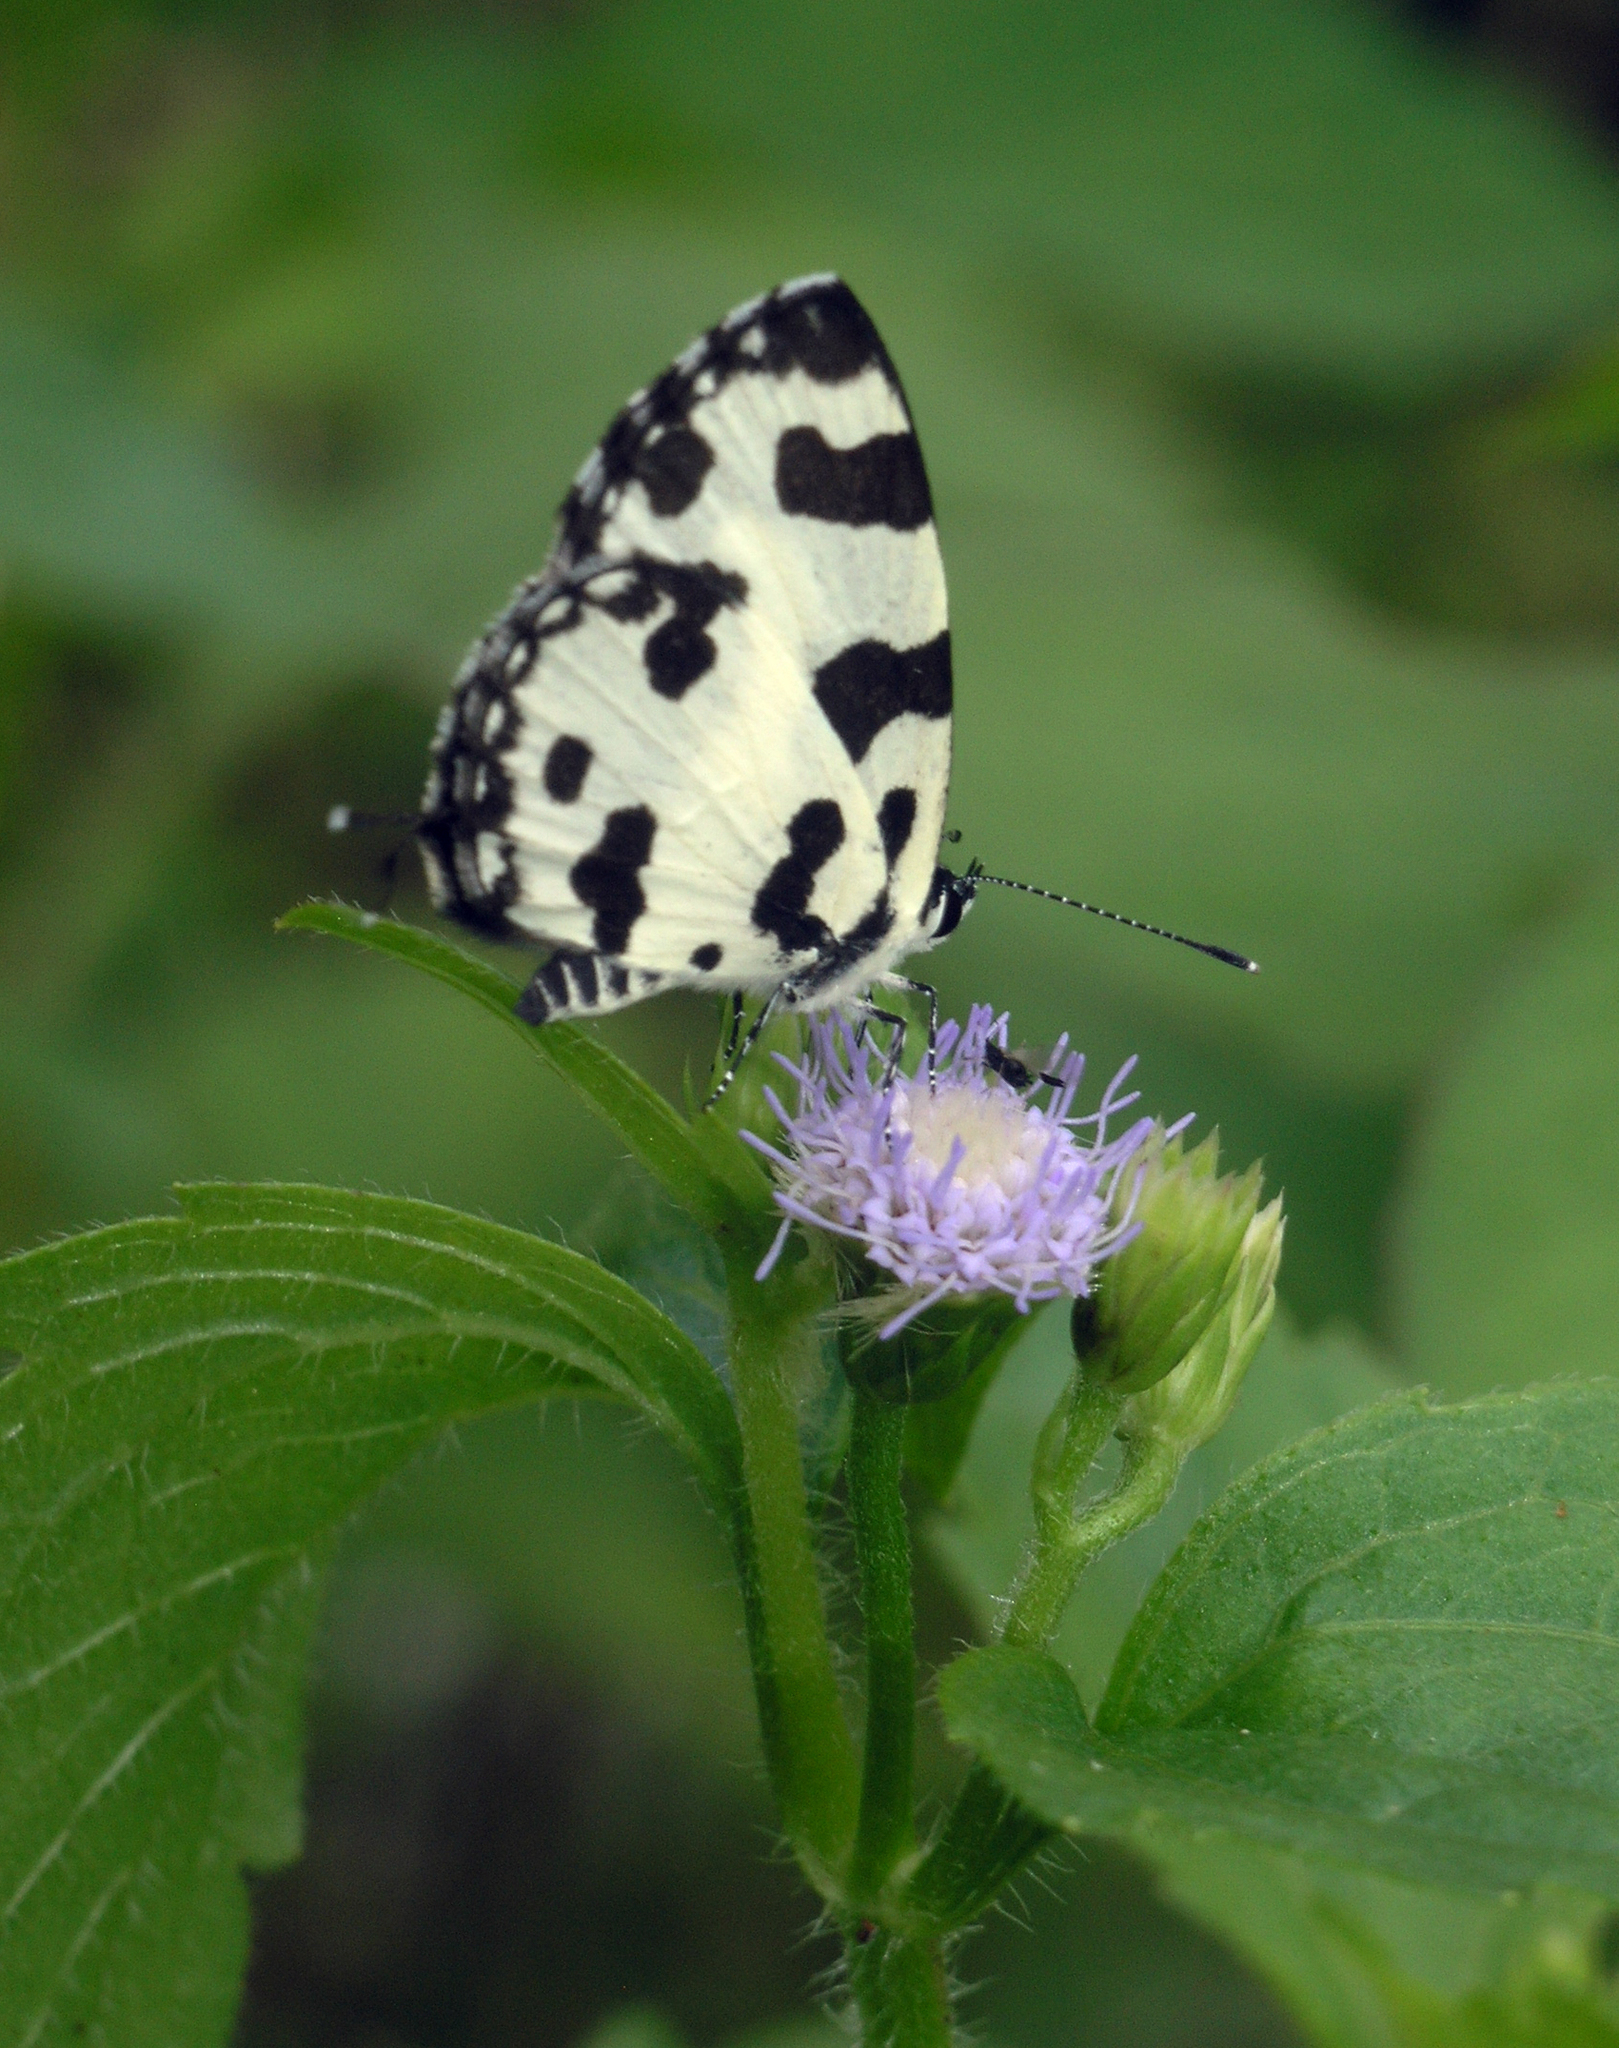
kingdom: Animalia
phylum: Arthropoda
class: Insecta
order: Lepidoptera
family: Lycaenidae
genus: Caleta
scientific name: Caleta decidia
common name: Angled pierrot
